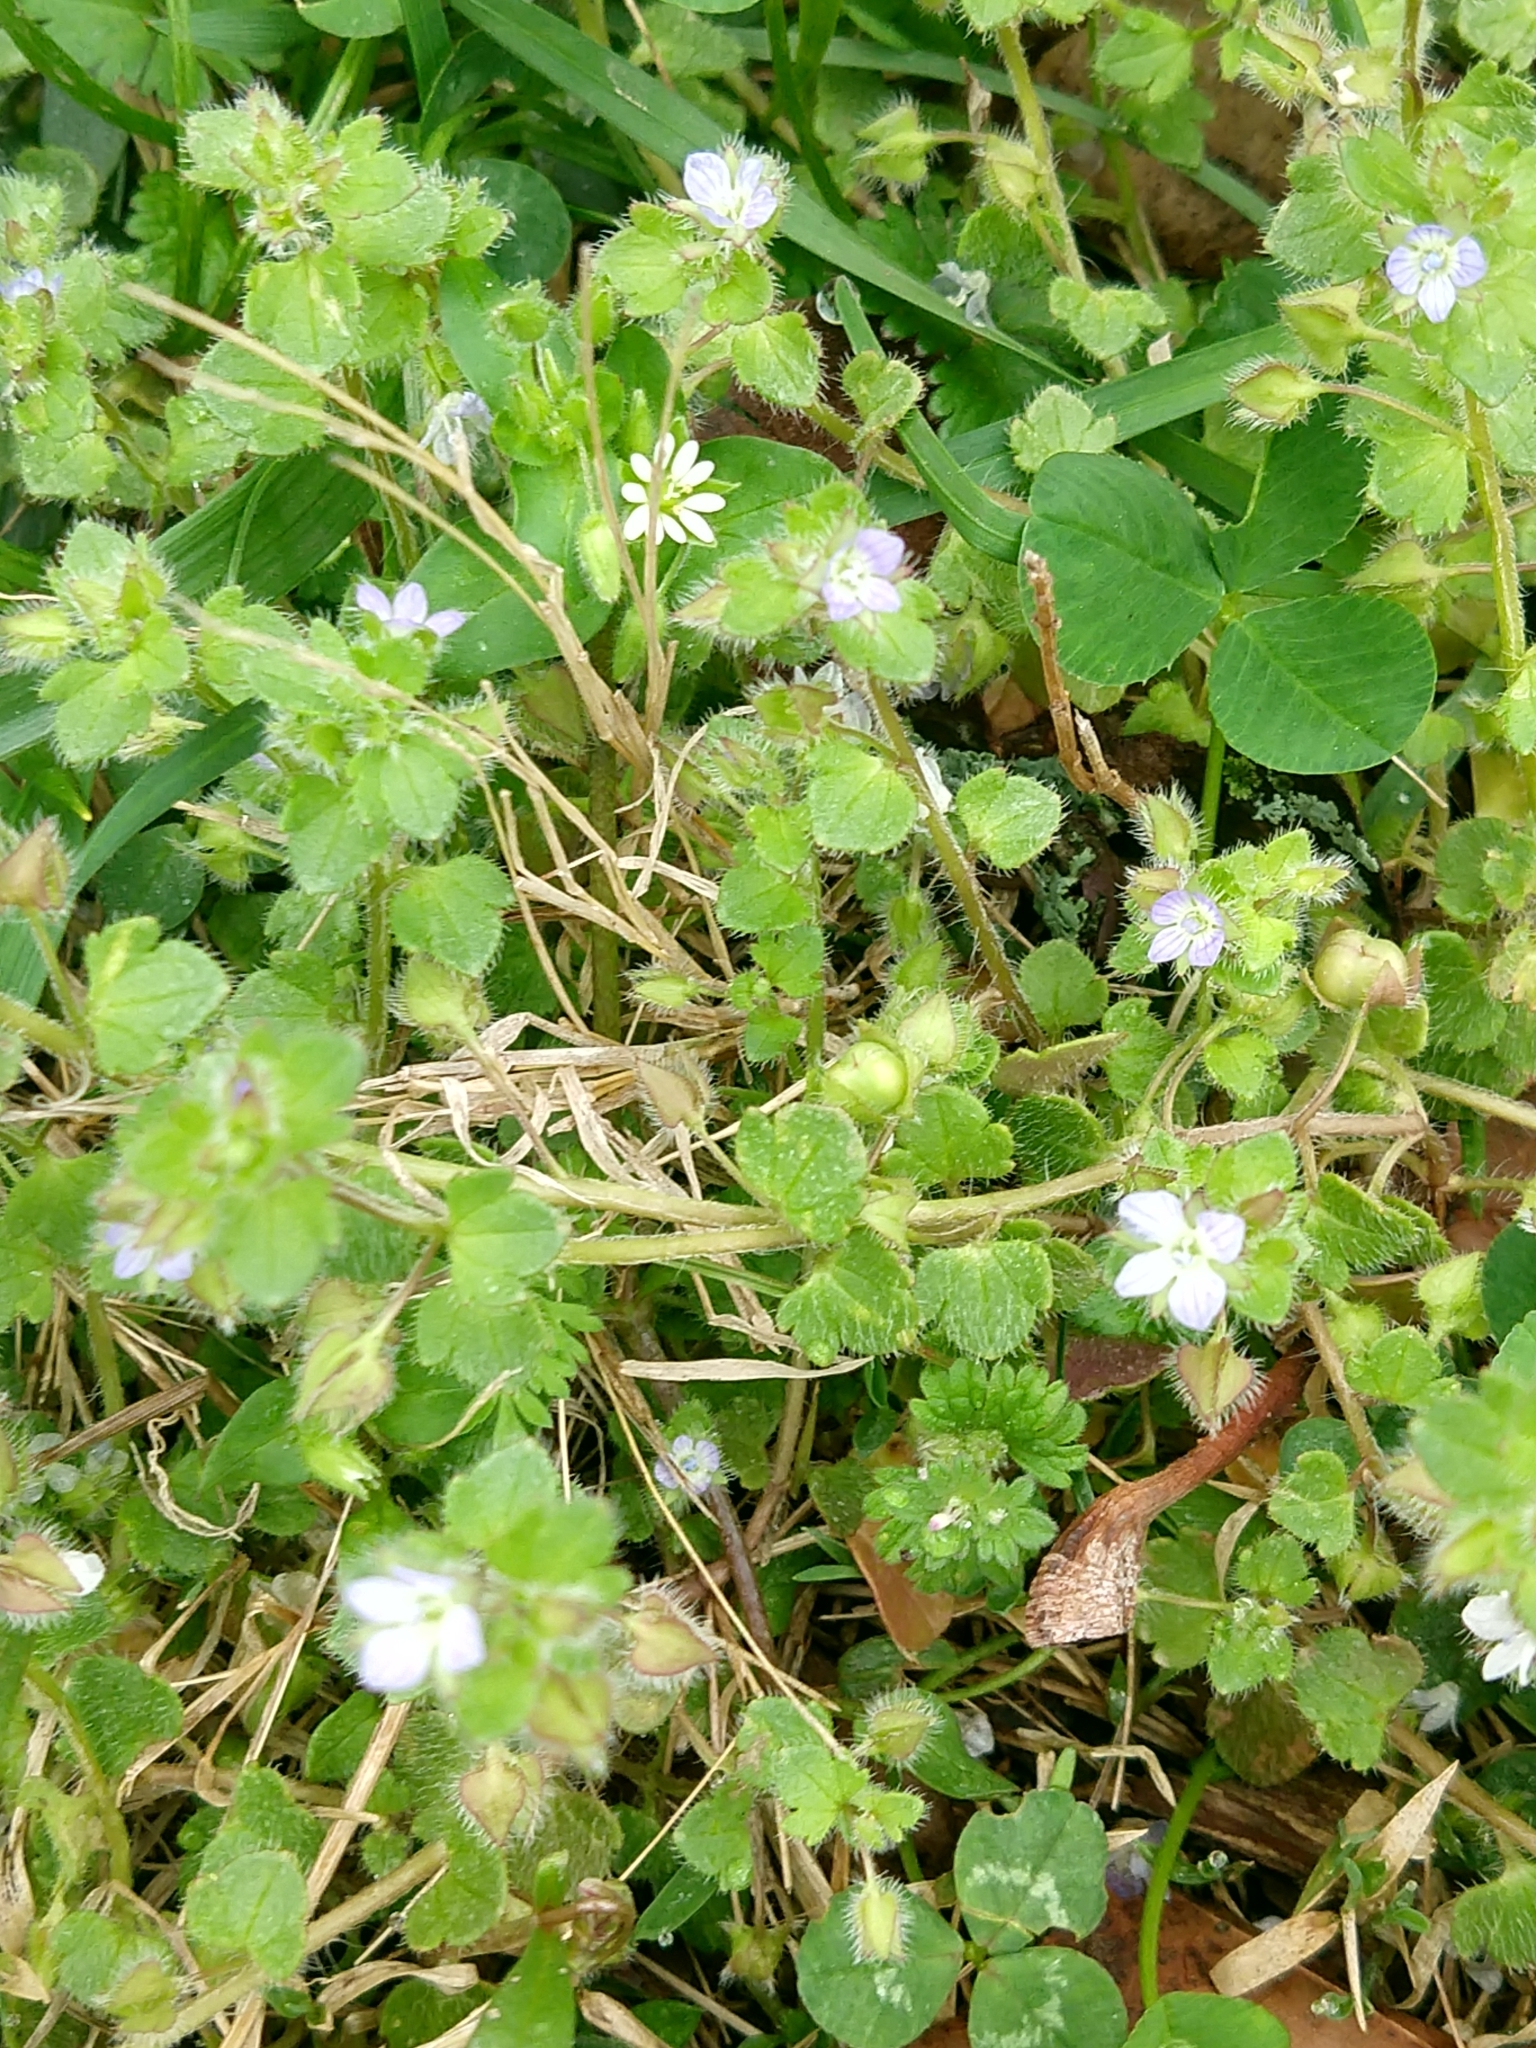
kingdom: Plantae
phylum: Tracheophyta
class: Magnoliopsida
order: Lamiales
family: Plantaginaceae
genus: Veronica
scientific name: Veronica hederifolia
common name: Ivy-leaved speedwell
